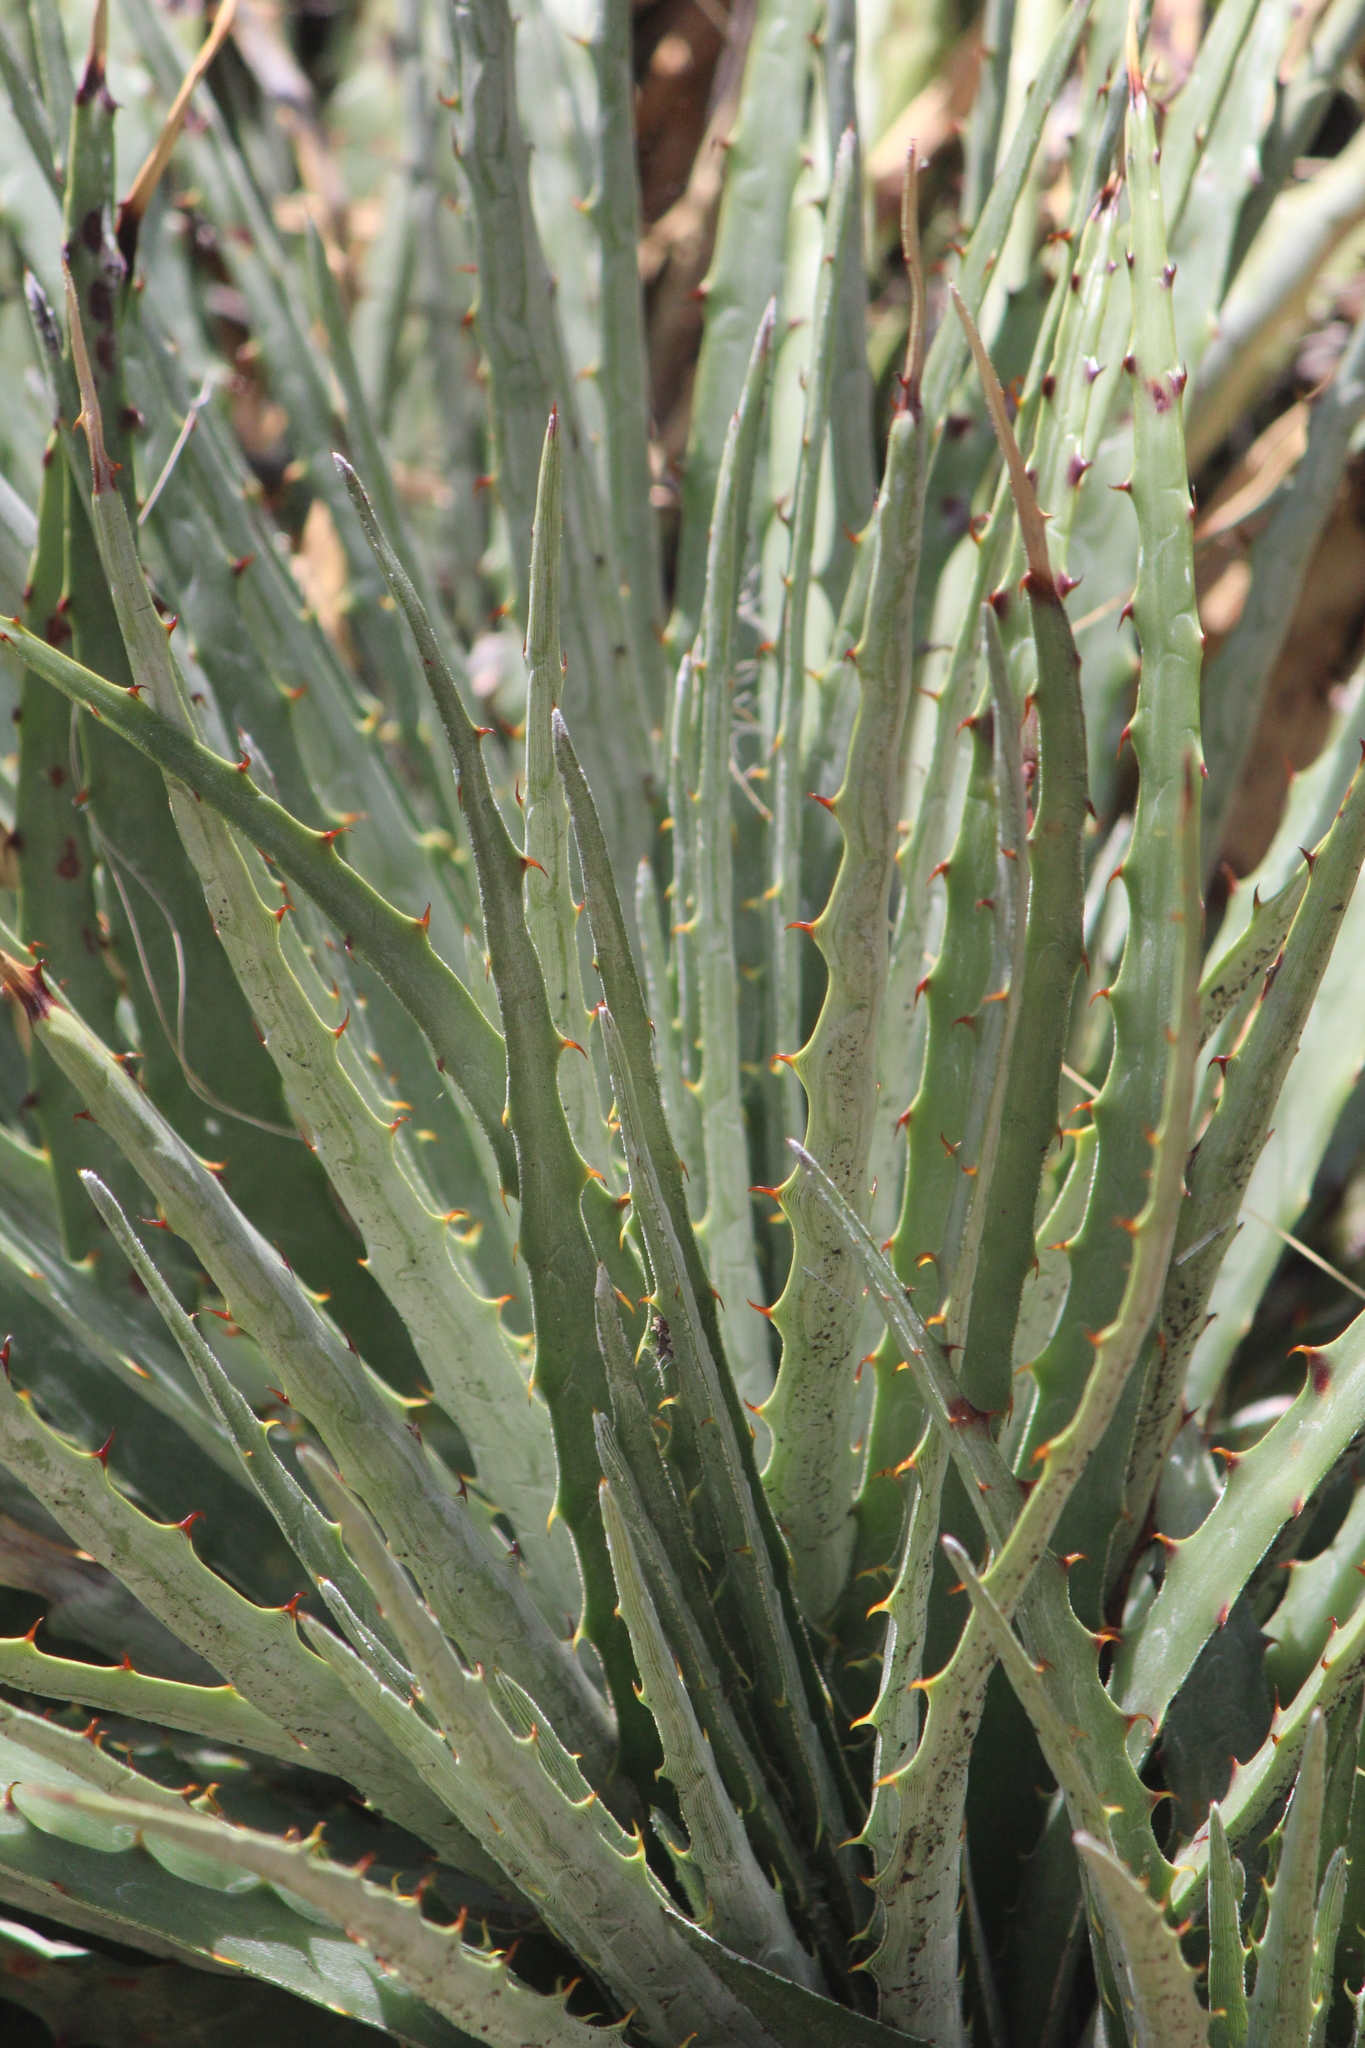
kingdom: Plantae
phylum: Tracheophyta
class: Liliopsida
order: Poales
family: Bromeliaceae
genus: Hechtia
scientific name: Hechtia podantha
